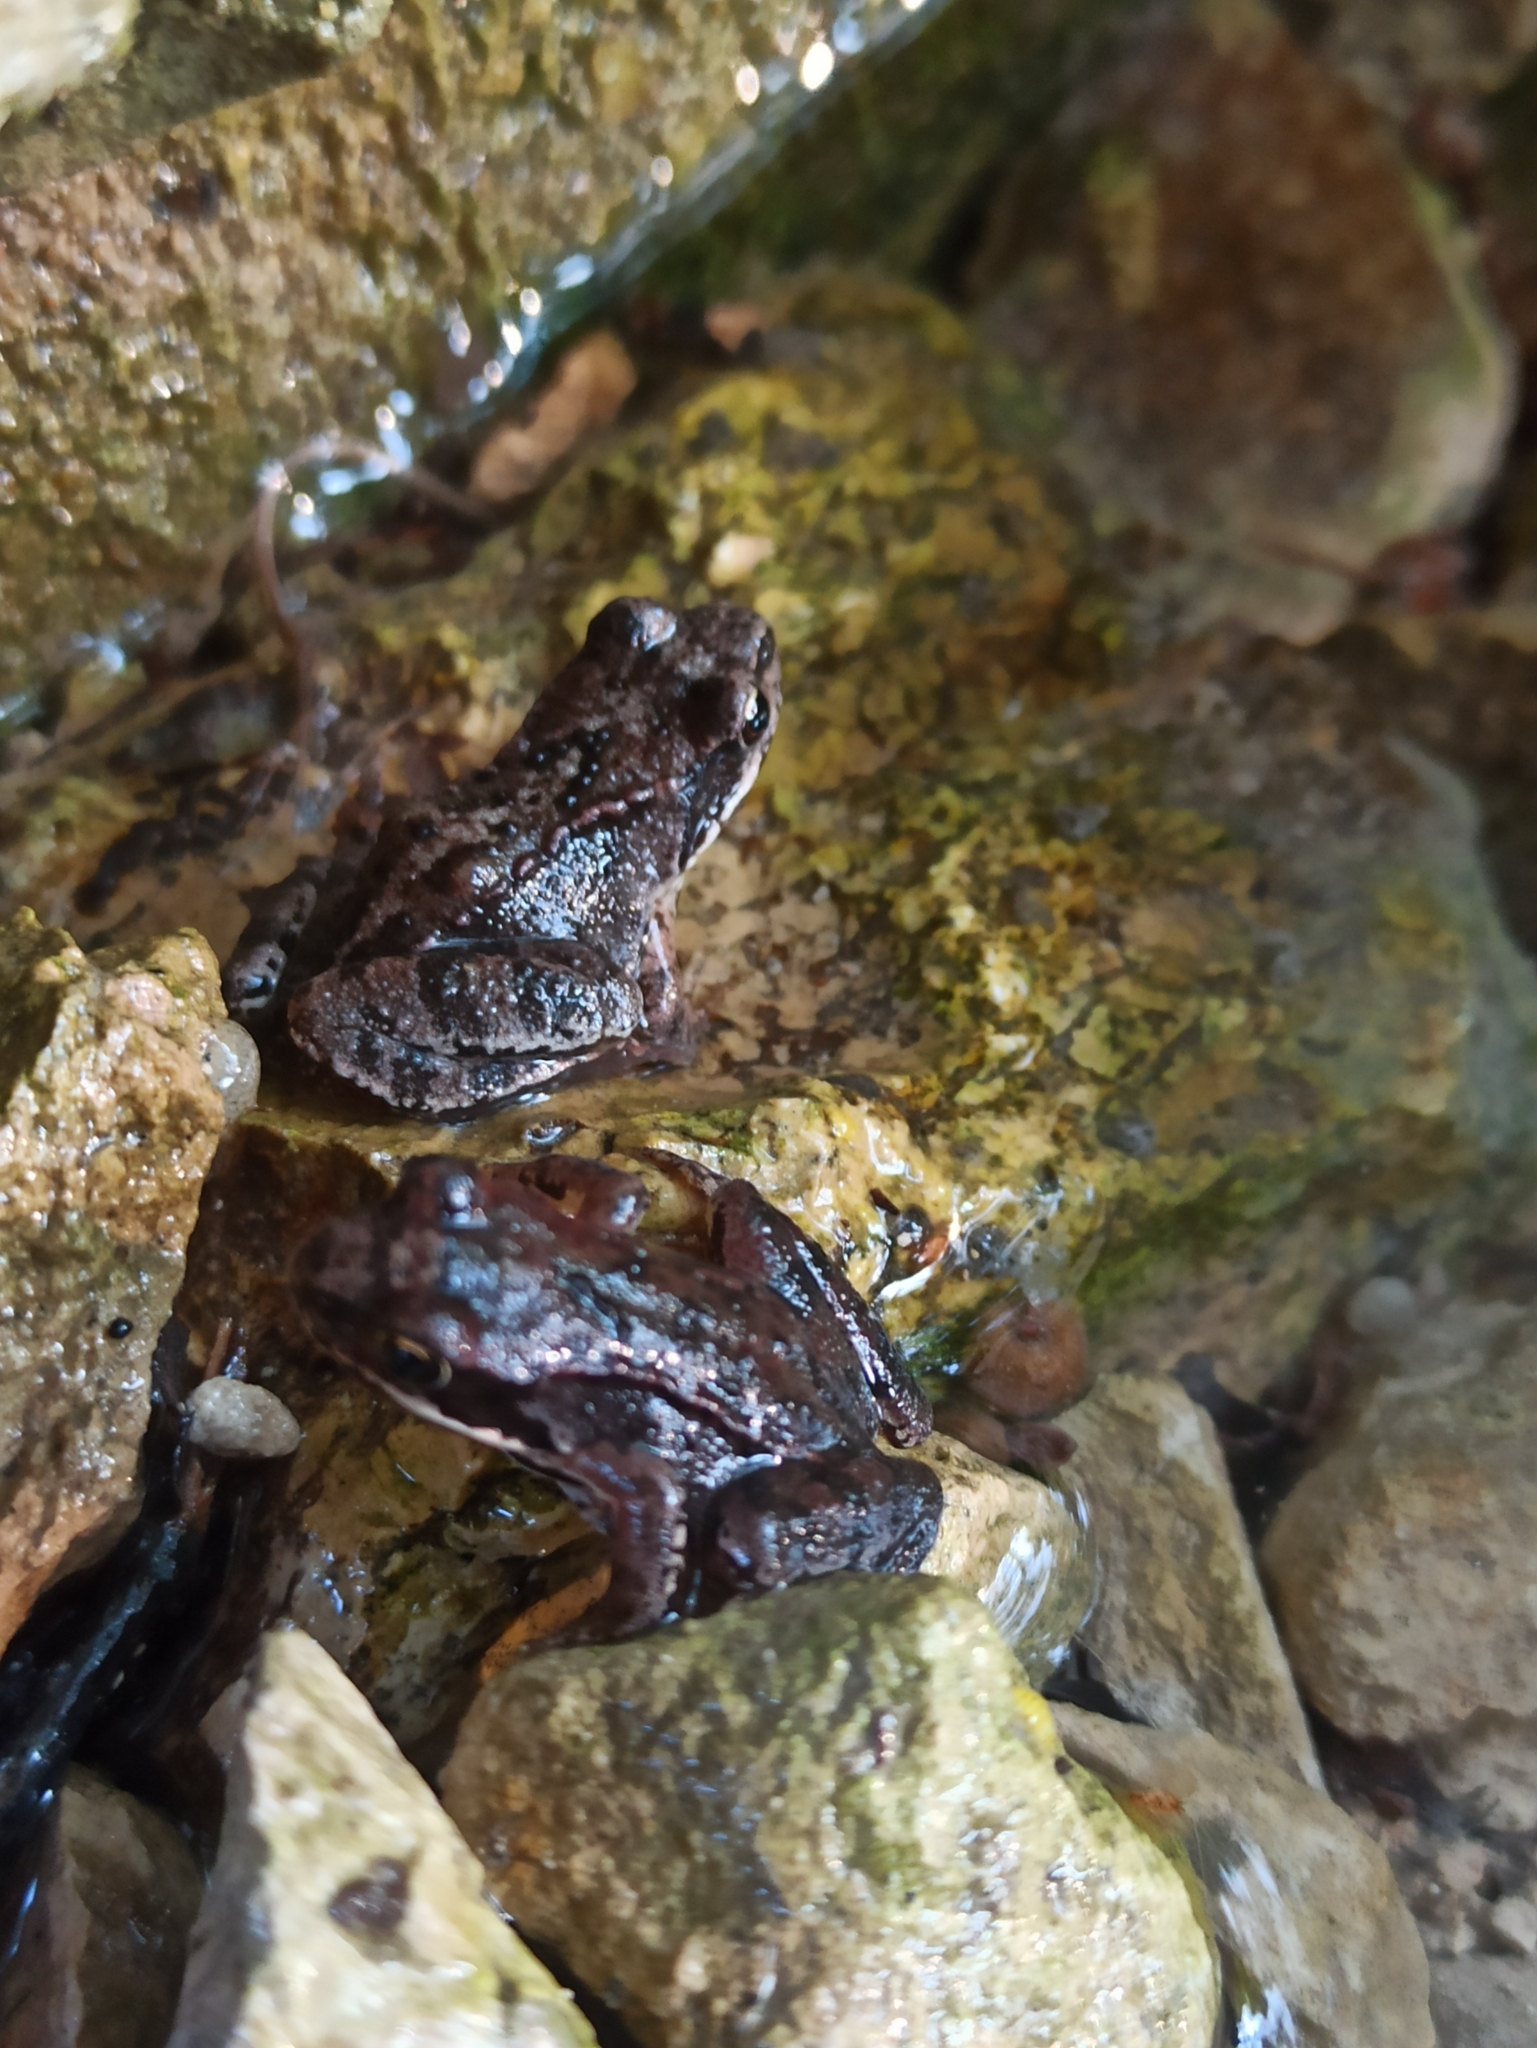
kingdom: Animalia
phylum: Chordata
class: Amphibia
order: Anura
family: Ranidae
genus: Rana
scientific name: Rana temporaria
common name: Common frog
